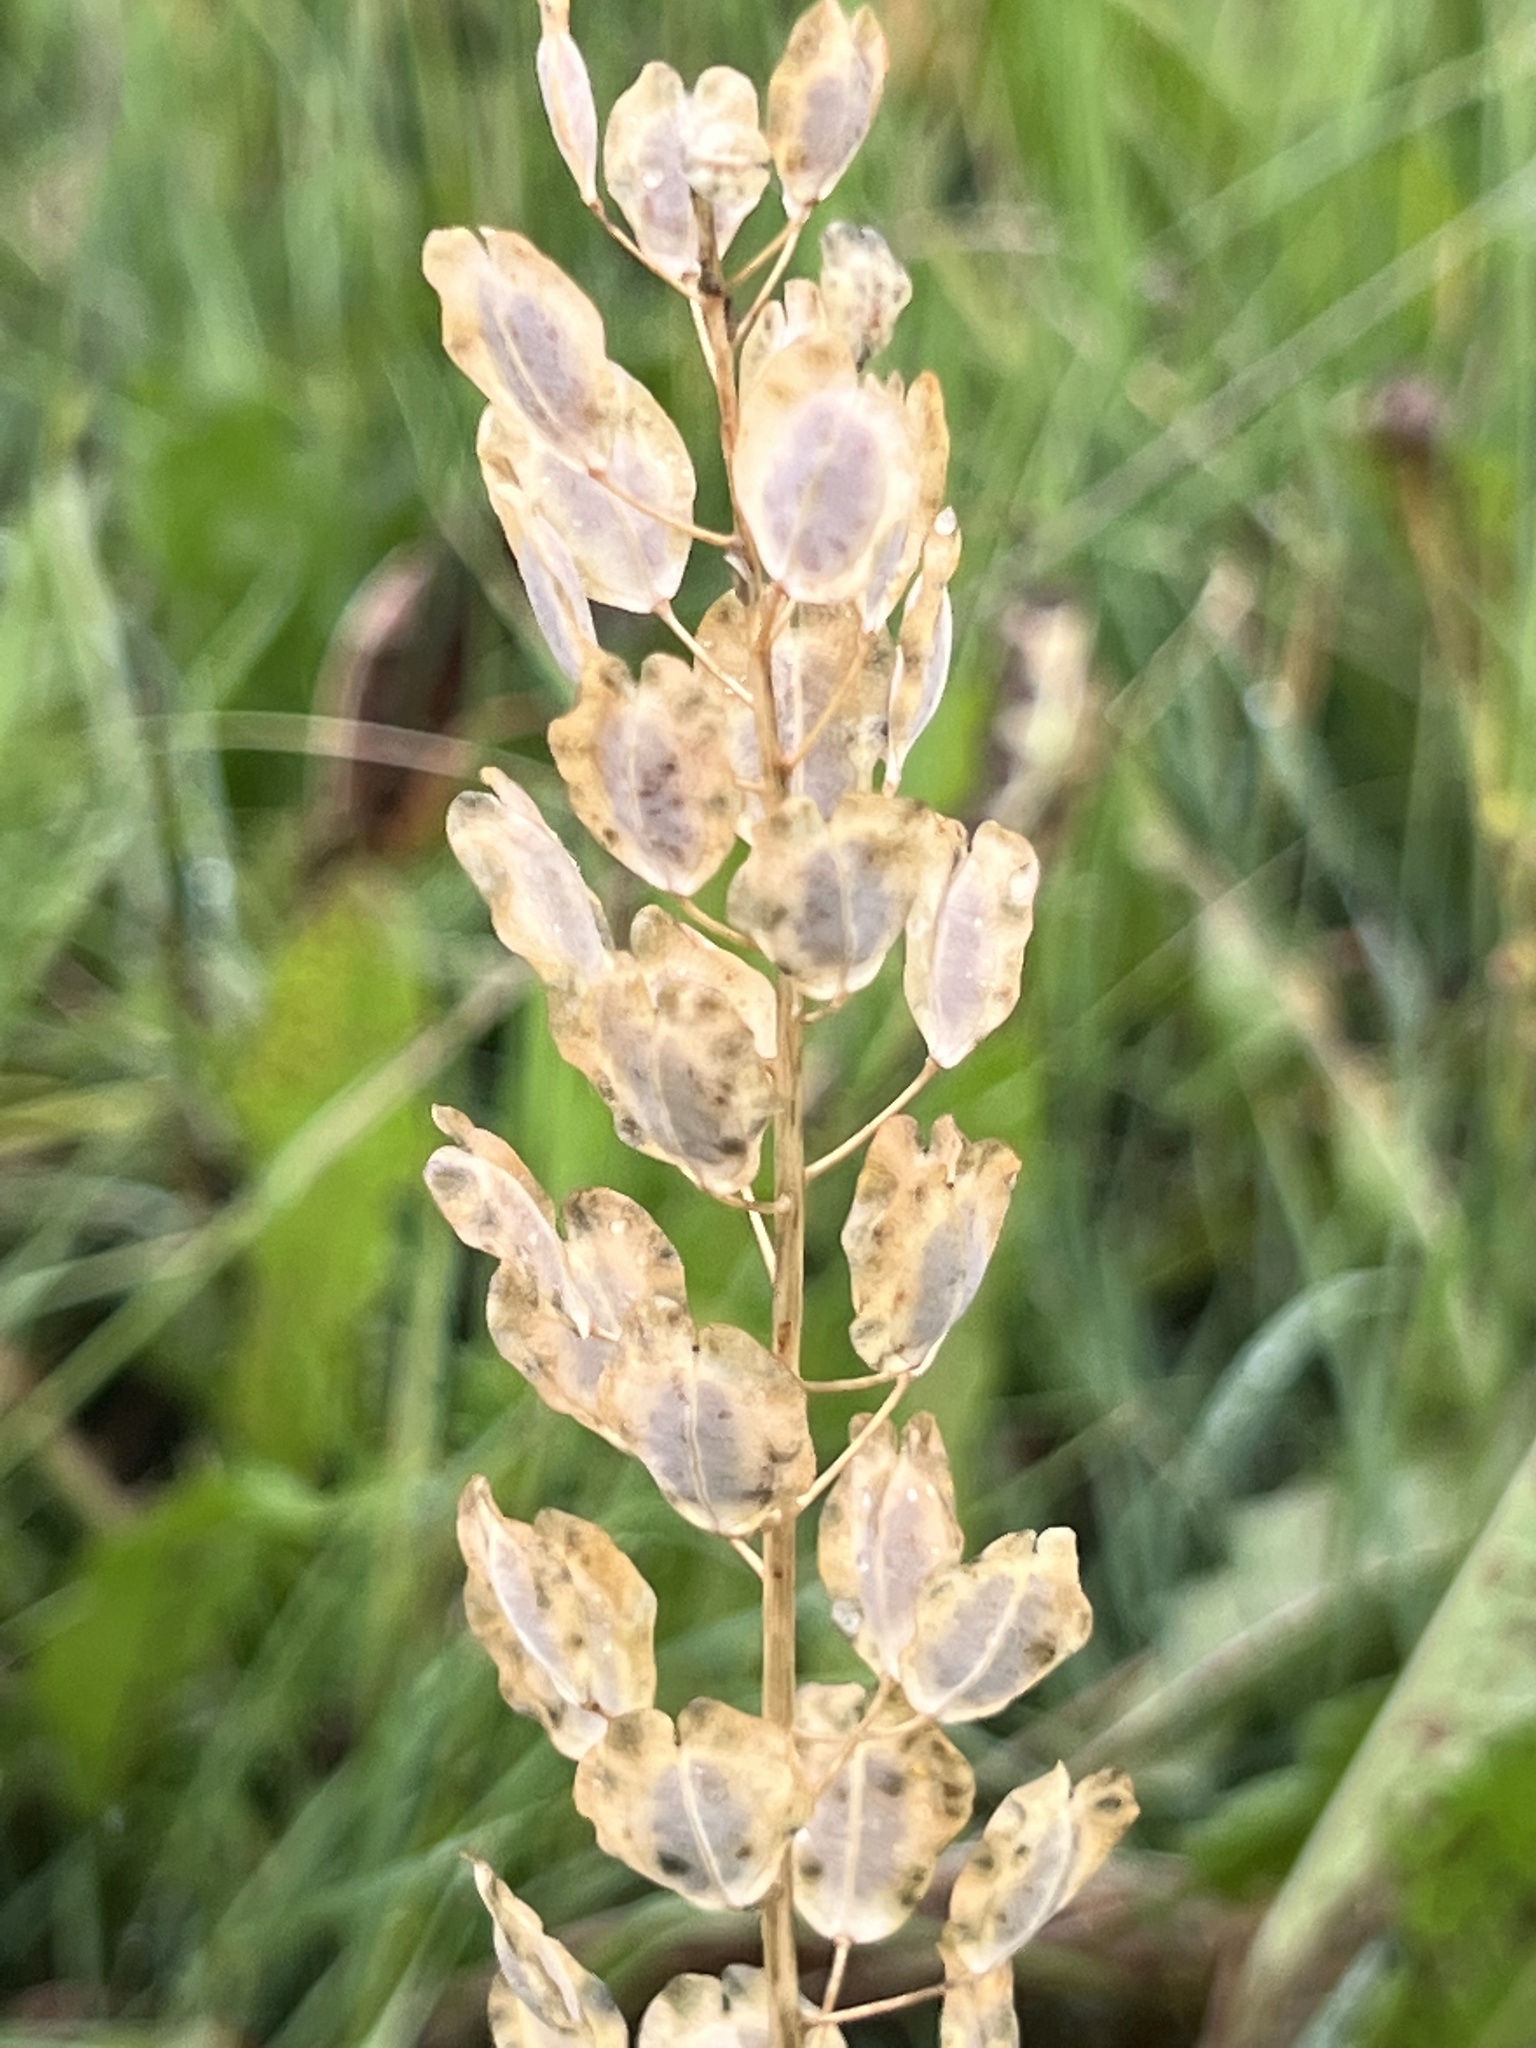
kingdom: Plantae
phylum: Tracheophyta
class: Magnoliopsida
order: Brassicales
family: Brassicaceae
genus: Thlaspi
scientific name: Thlaspi arvense
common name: Field pennycress
